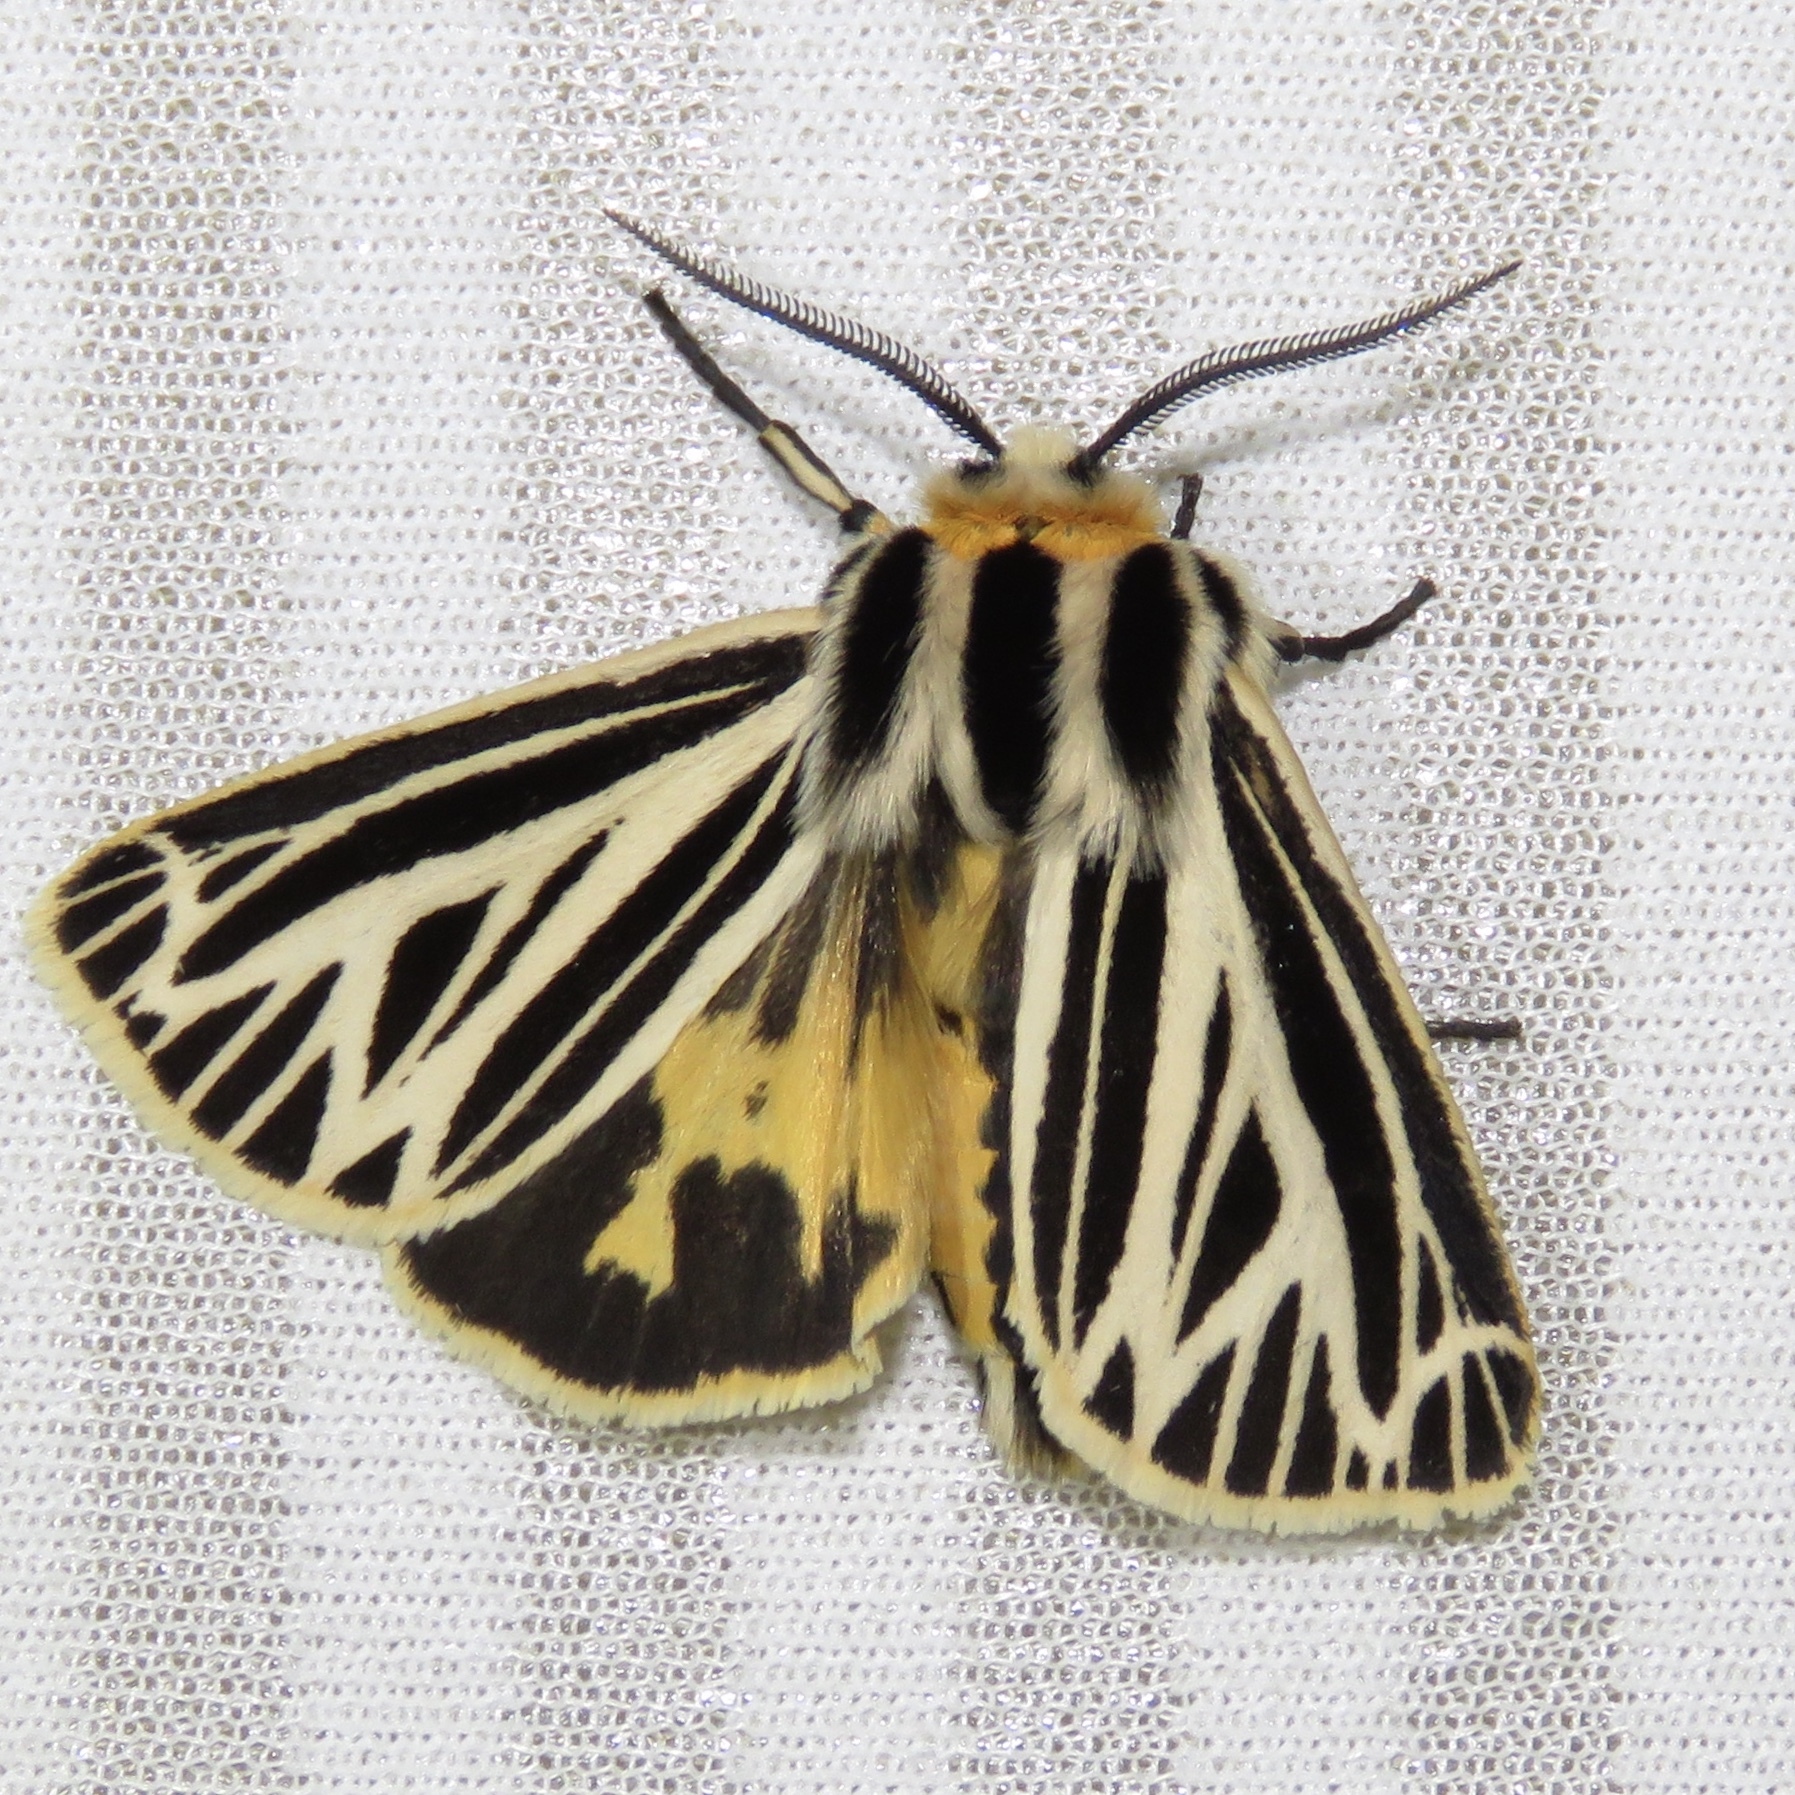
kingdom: Animalia
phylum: Arthropoda
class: Insecta
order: Lepidoptera
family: Erebidae
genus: Grammia
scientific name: Grammia virguncula
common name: Little tiger moth
